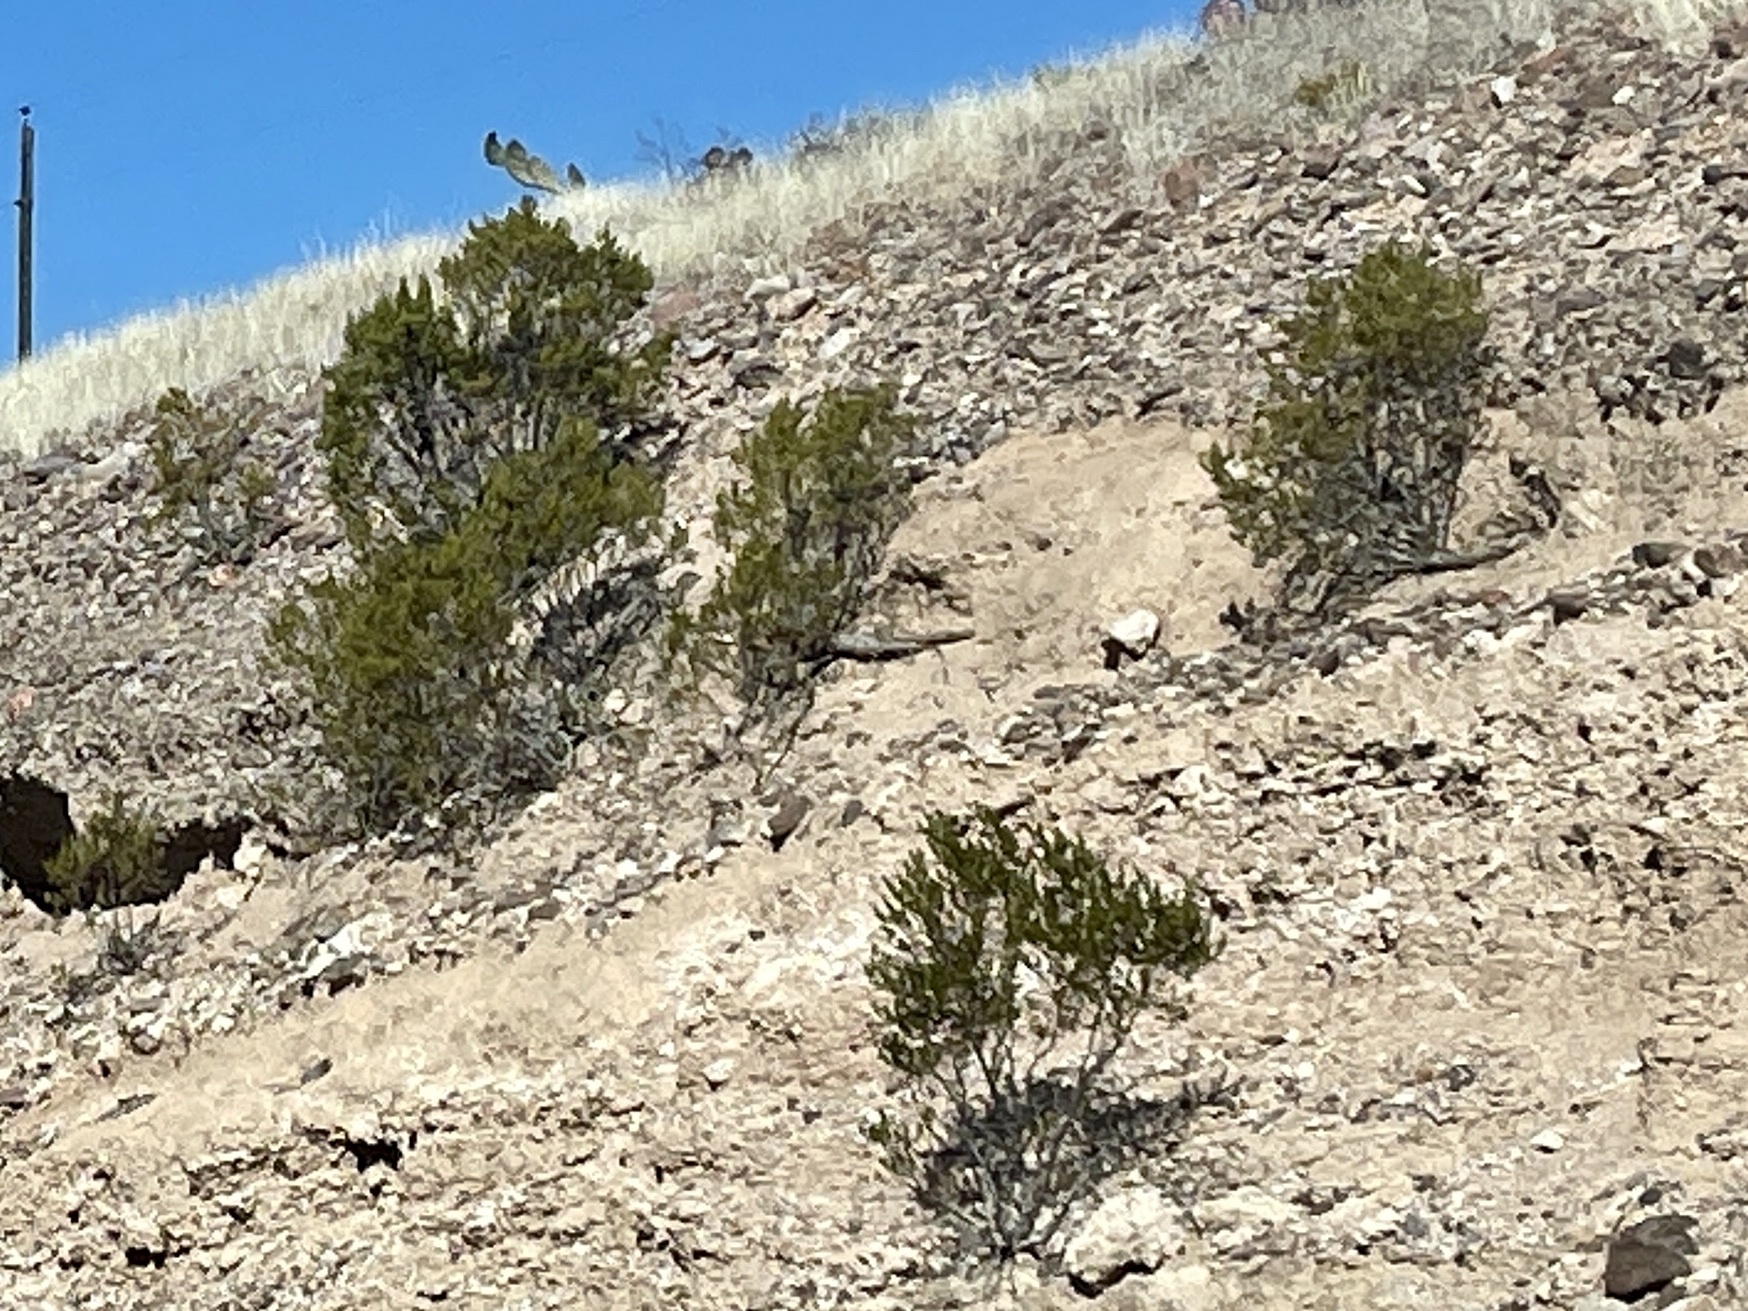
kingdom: Plantae
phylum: Tracheophyta
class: Magnoliopsida
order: Zygophyllales
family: Zygophyllaceae
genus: Larrea
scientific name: Larrea tridentata
